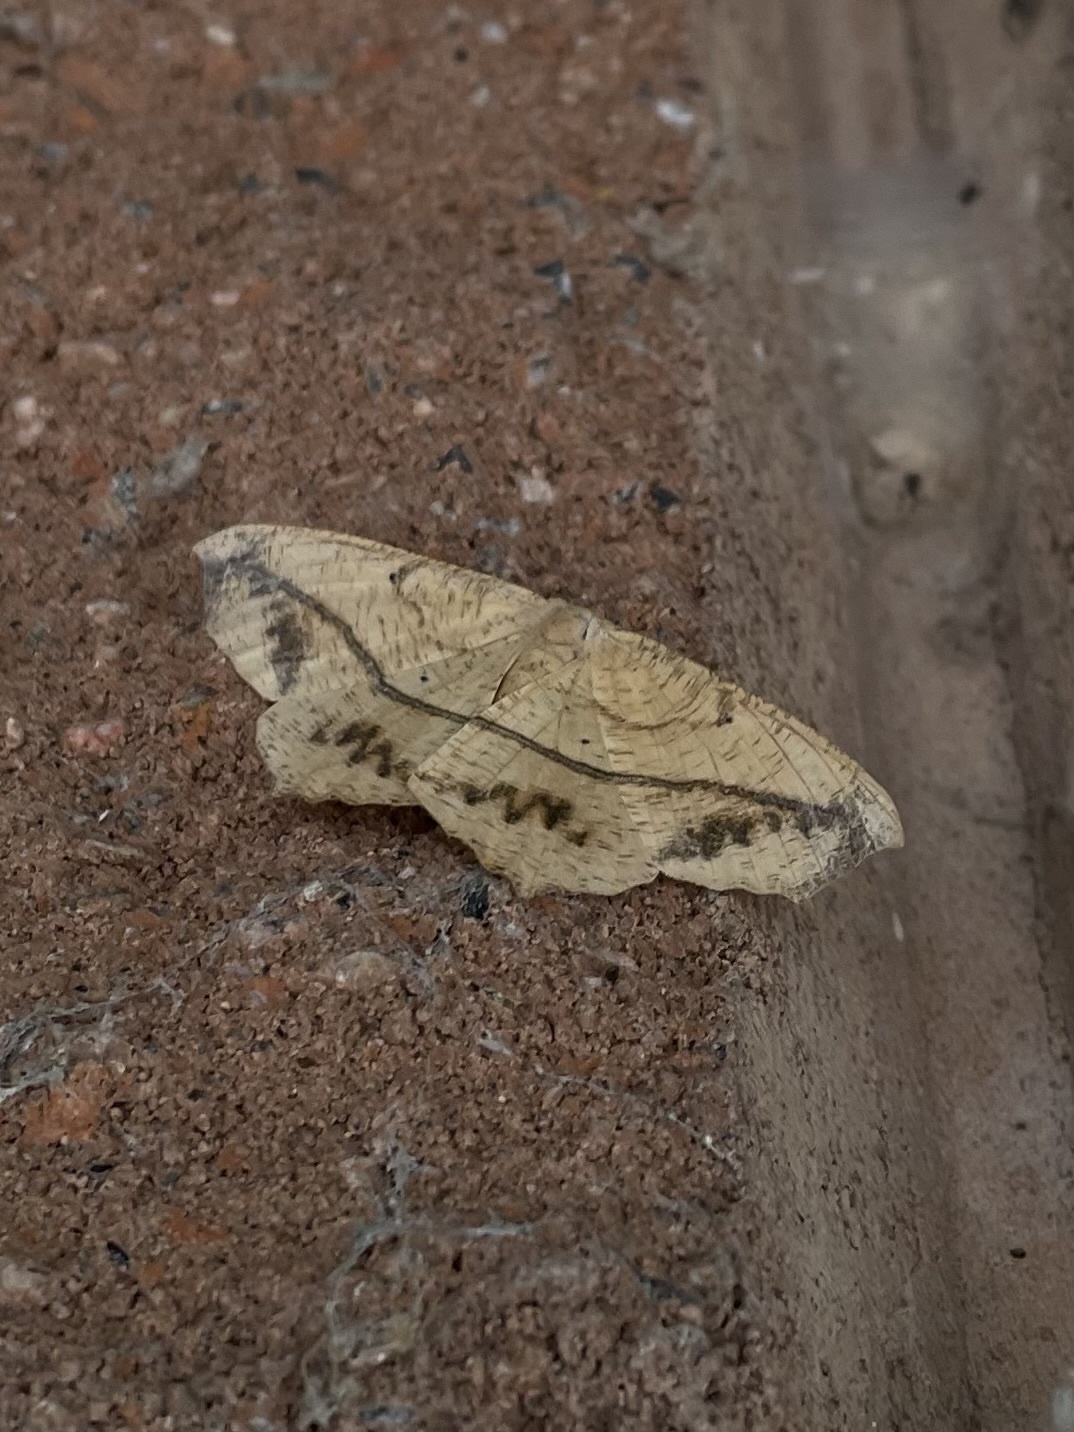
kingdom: Animalia
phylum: Arthropoda
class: Insecta
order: Lepidoptera
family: Geometridae
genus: Prochoerodes
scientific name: Prochoerodes lineola
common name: Large maple spanworm
